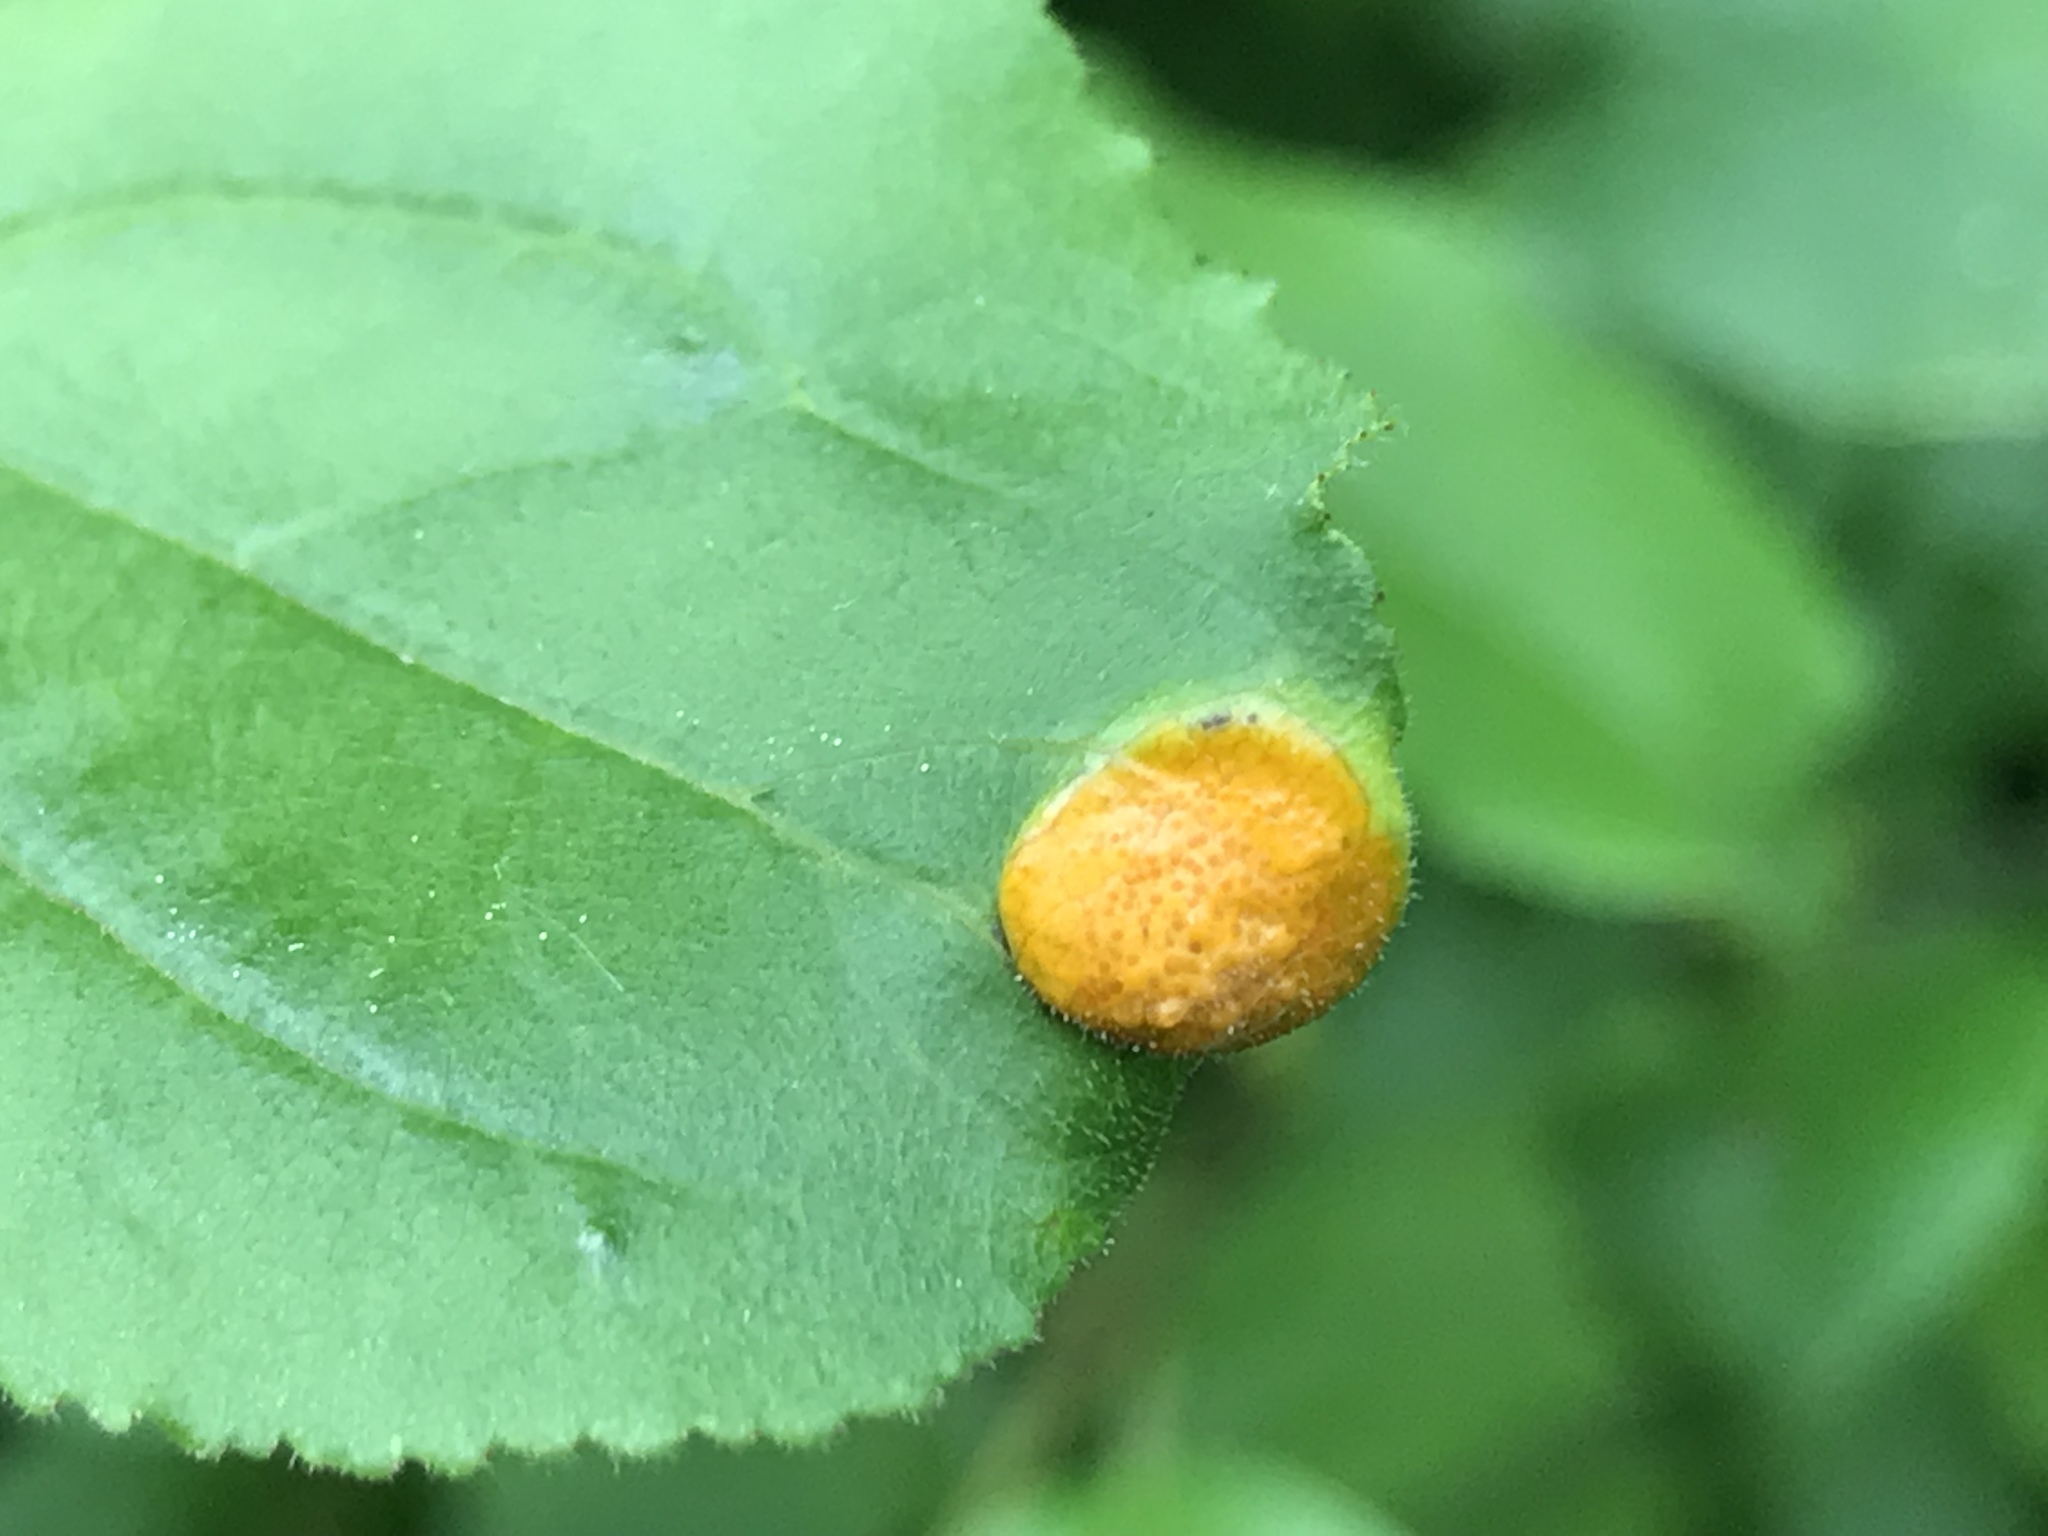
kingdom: Fungi
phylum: Basidiomycota
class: Pucciniomycetes
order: Pucciniales
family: Pucciniaceae
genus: Puccinia
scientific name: Puccinia coronata
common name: Crown rust
